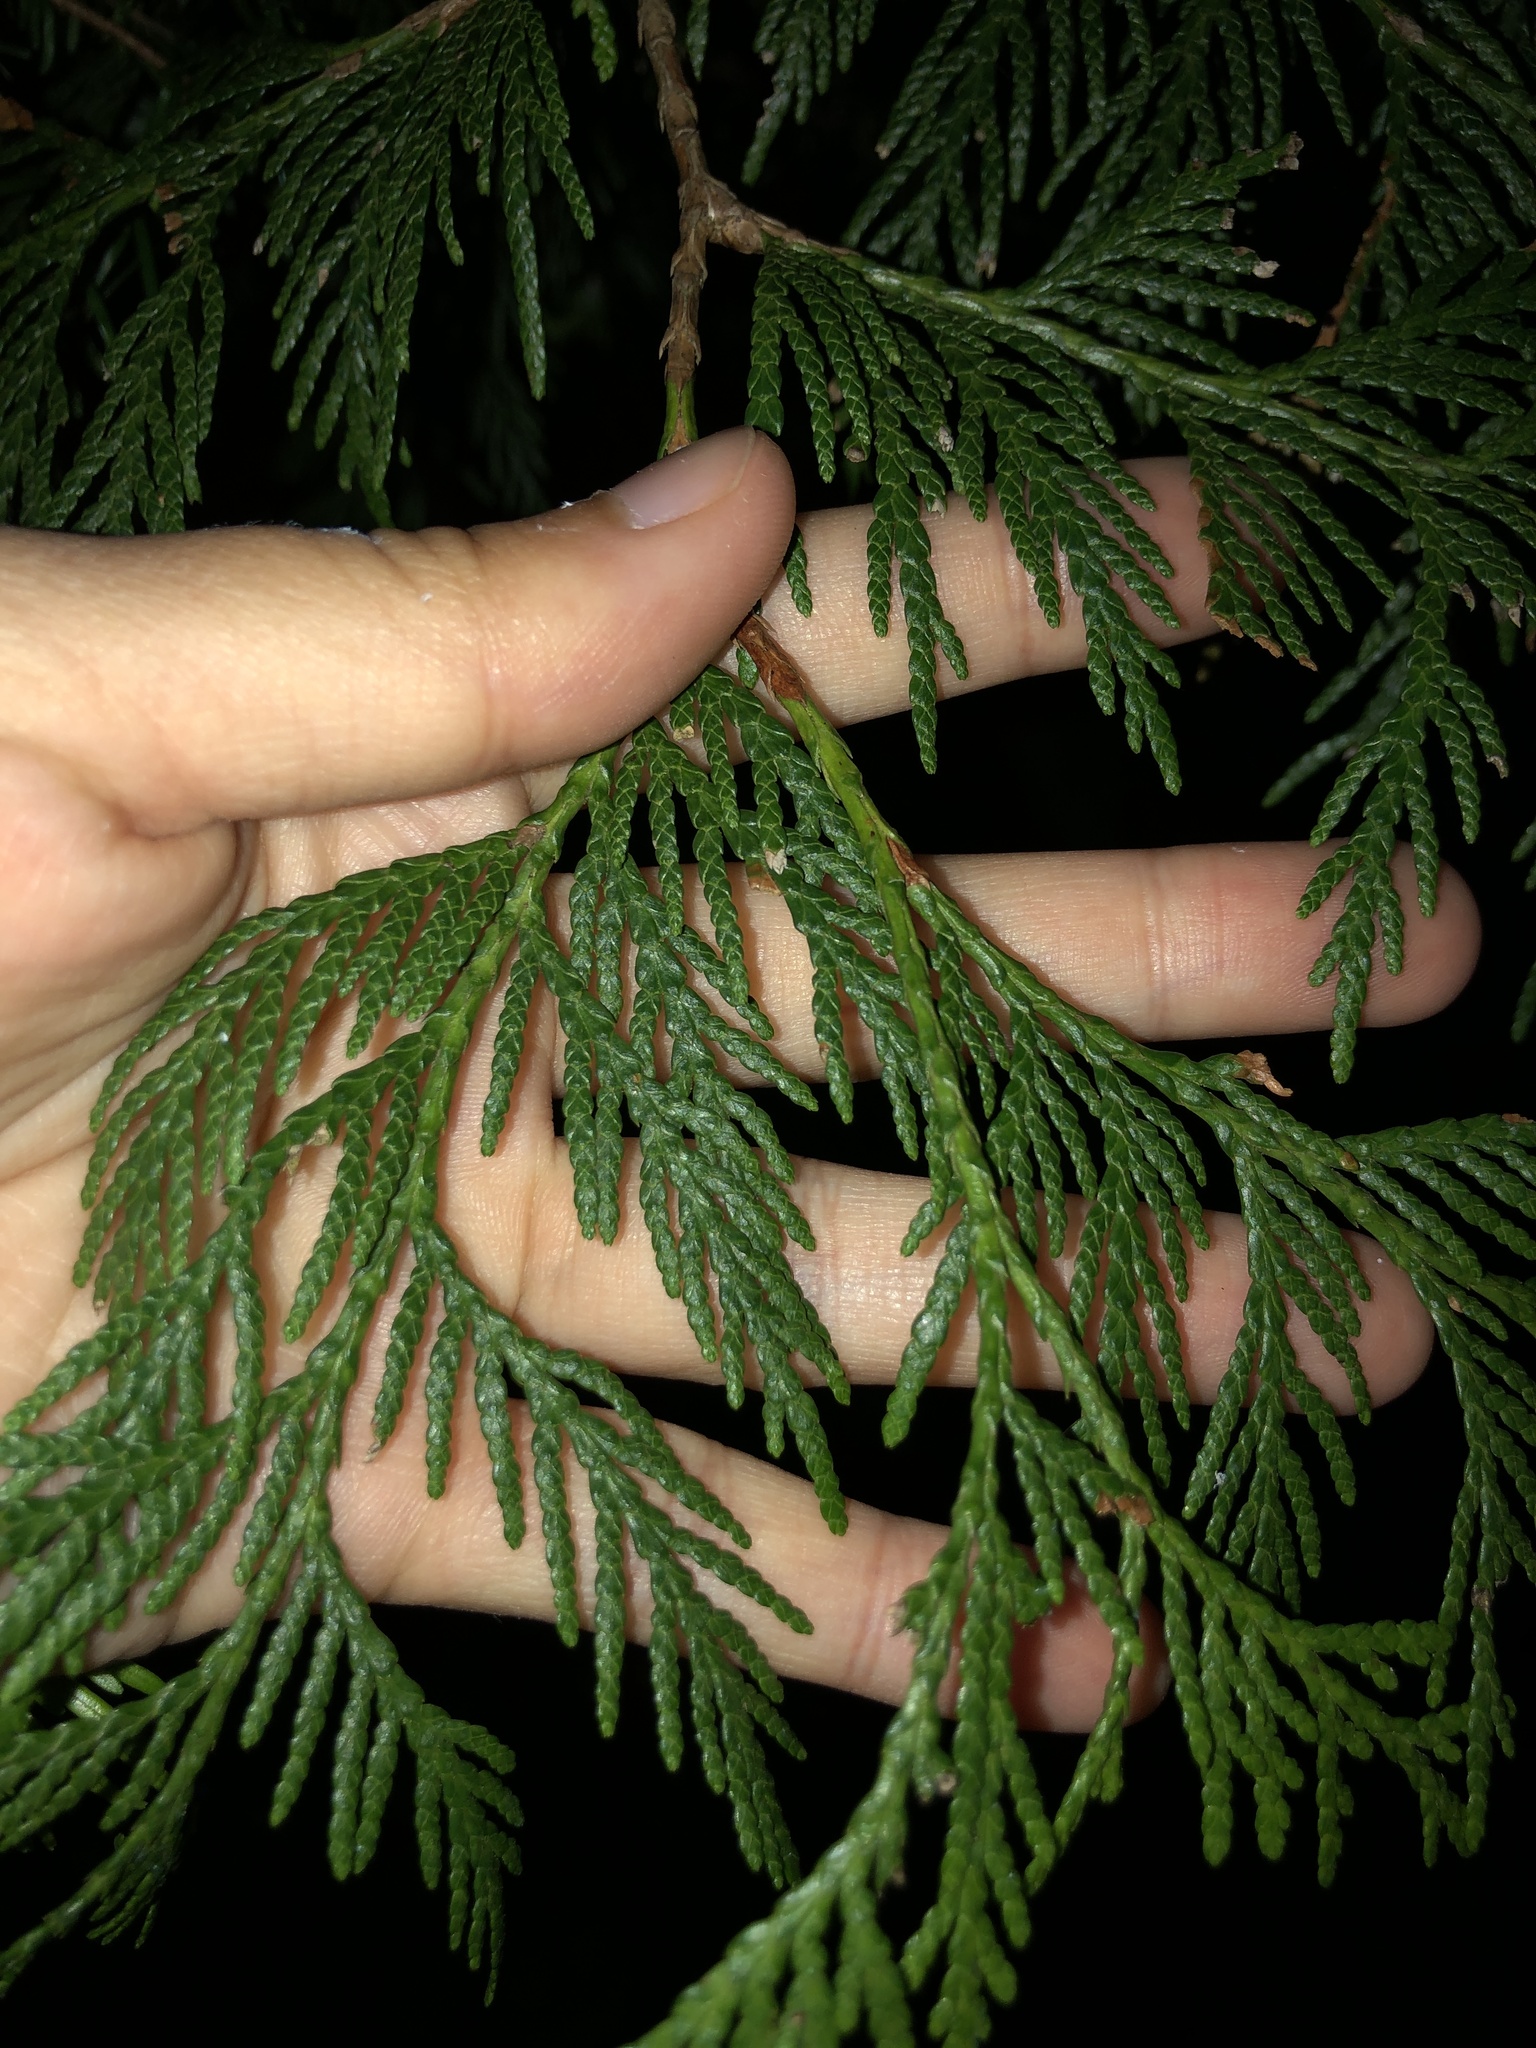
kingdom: Plantae
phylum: Tracheophyta
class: Pinopsida
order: Pinales
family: Cupressaceae
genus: Thuja
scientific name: Thuja plicata
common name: Western red-cedar
